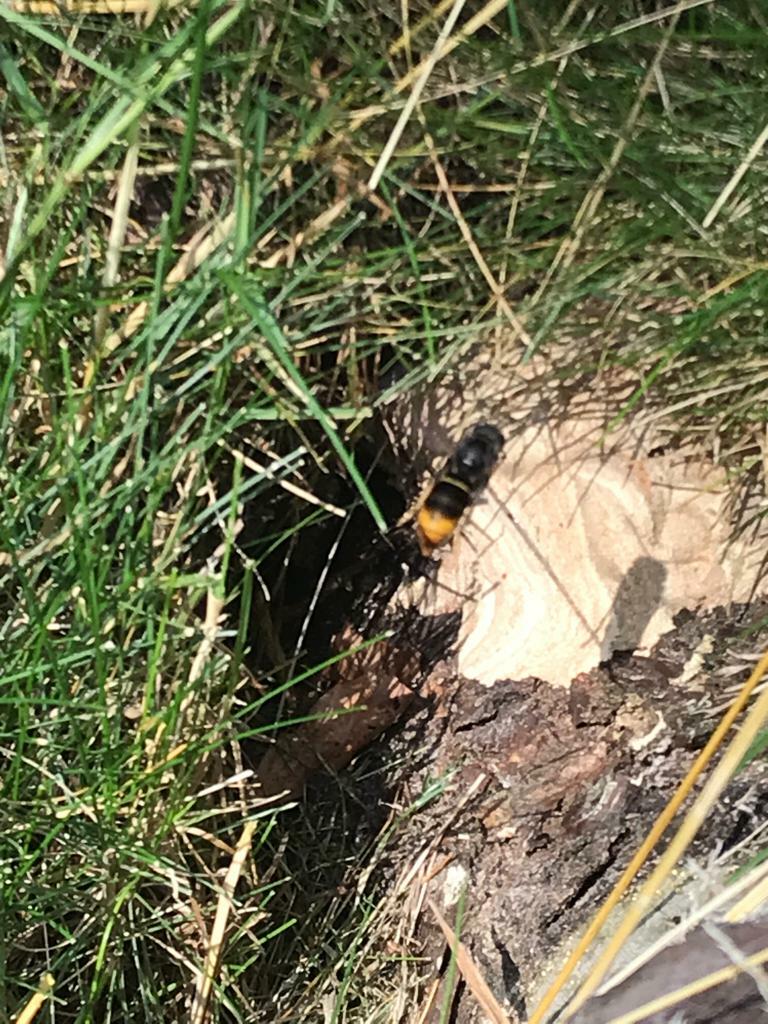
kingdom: Animalia
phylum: Arthropoda
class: Insecta
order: Hymenoptera
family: Vespidae
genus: Vespa
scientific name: Vespa velutina
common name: Asian hornet
